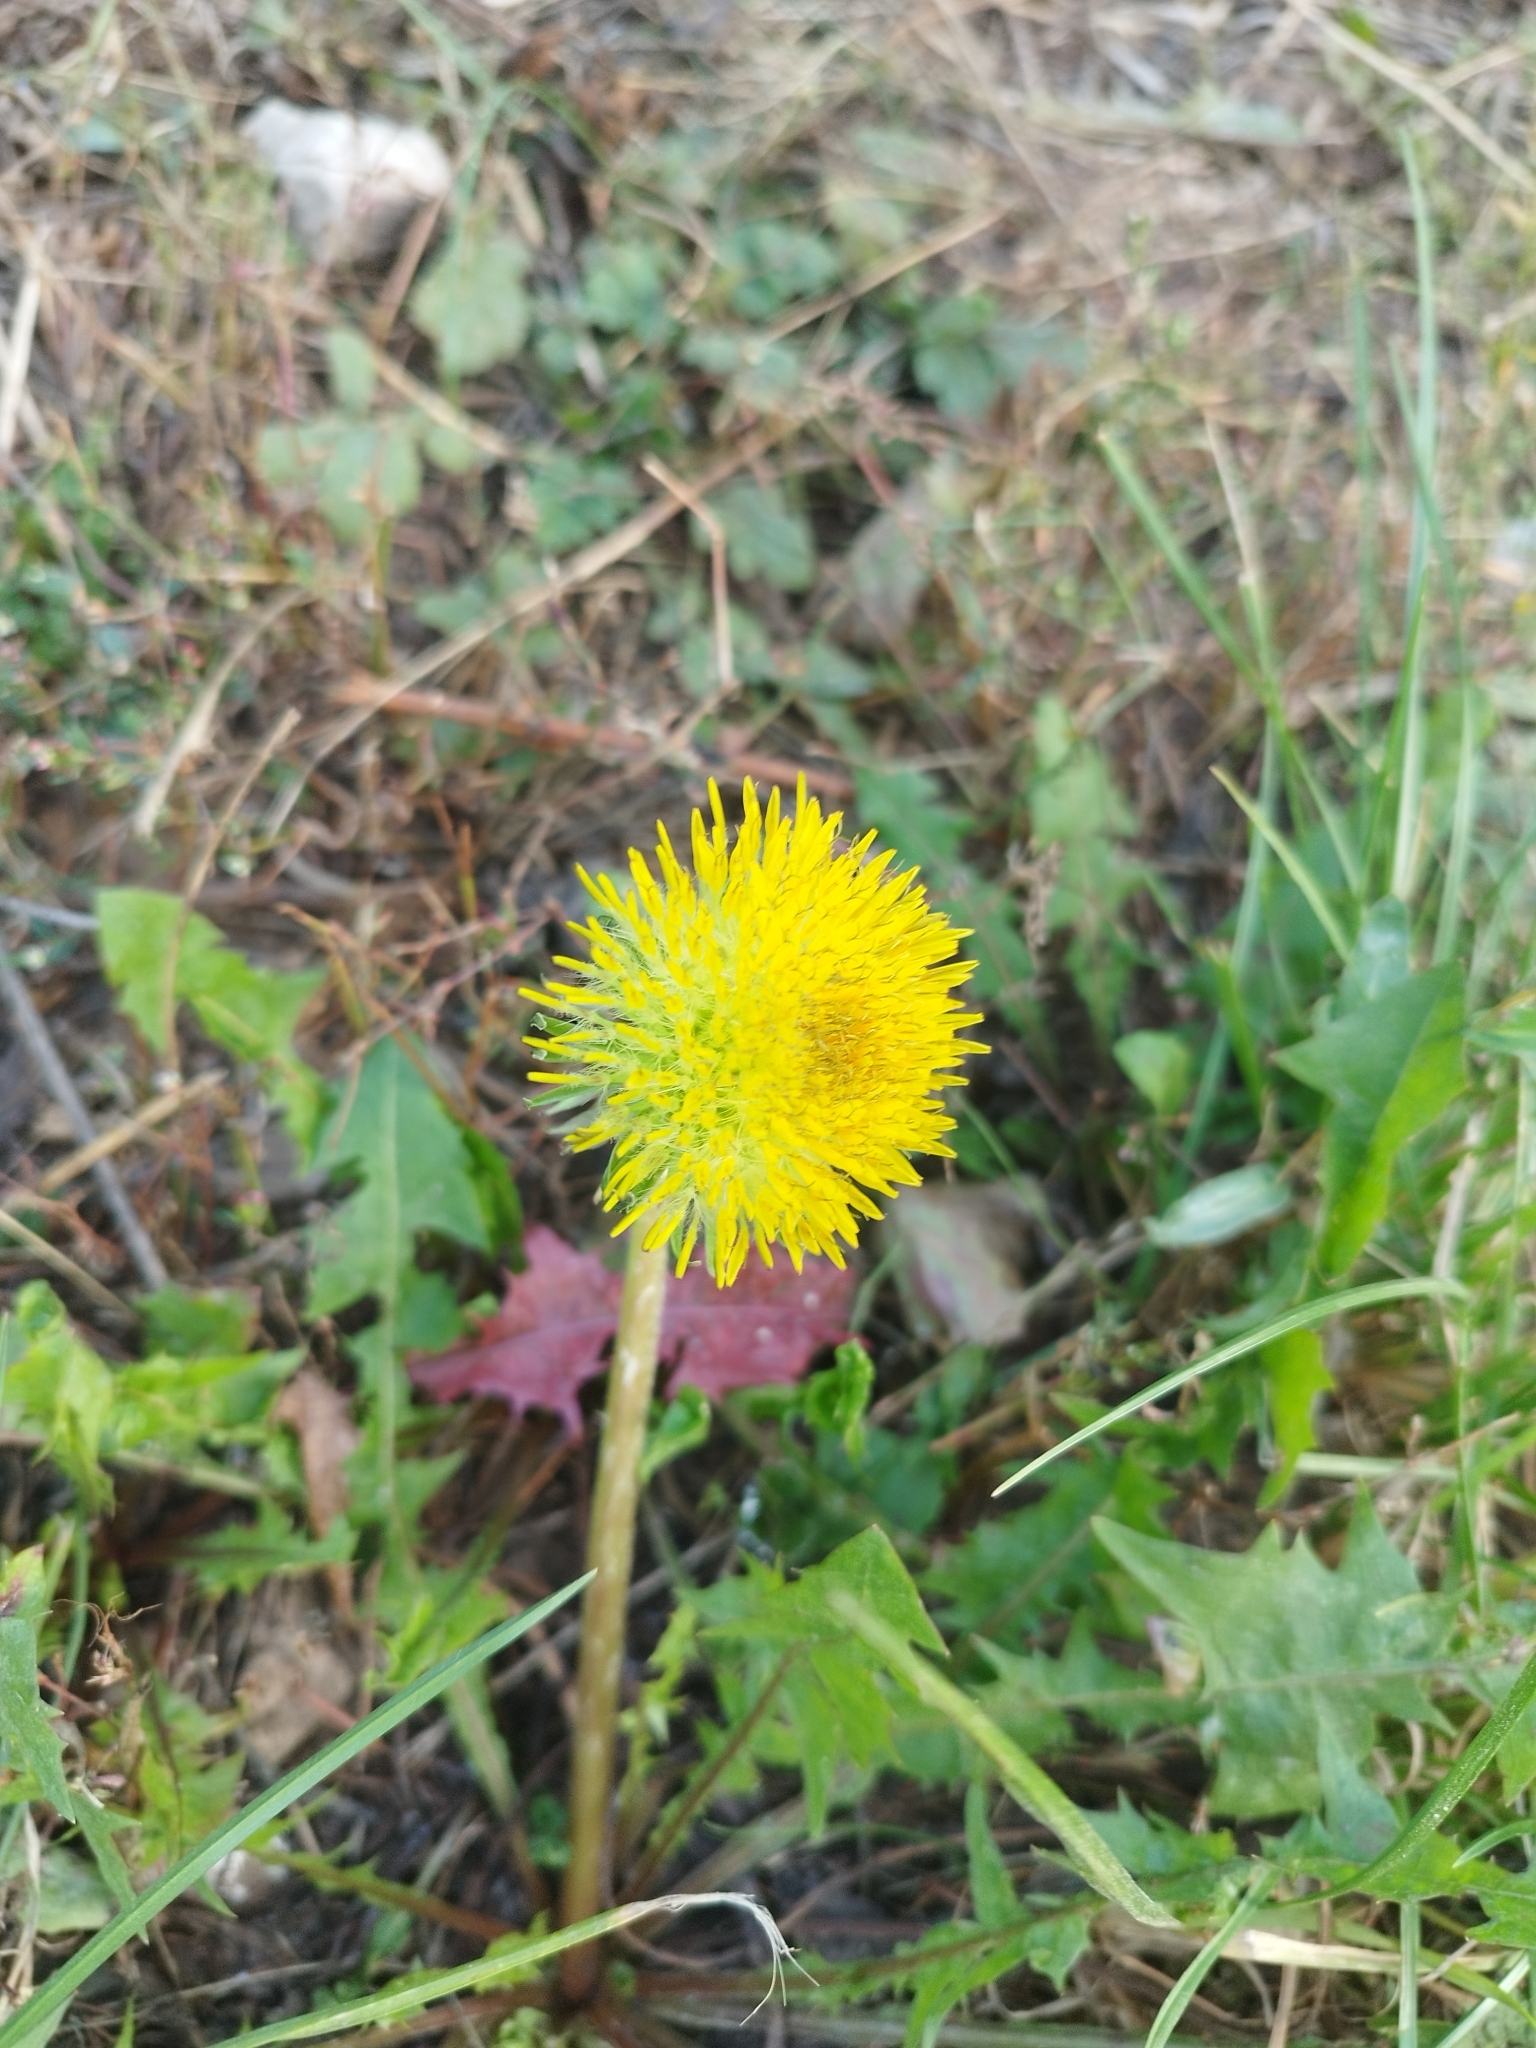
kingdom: Plantae
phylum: Tracheophyta
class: Magnoliopsida
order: Asterales
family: Asteraceae
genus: Taraxacum
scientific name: Taraxacum officinale
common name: Common dandelion
